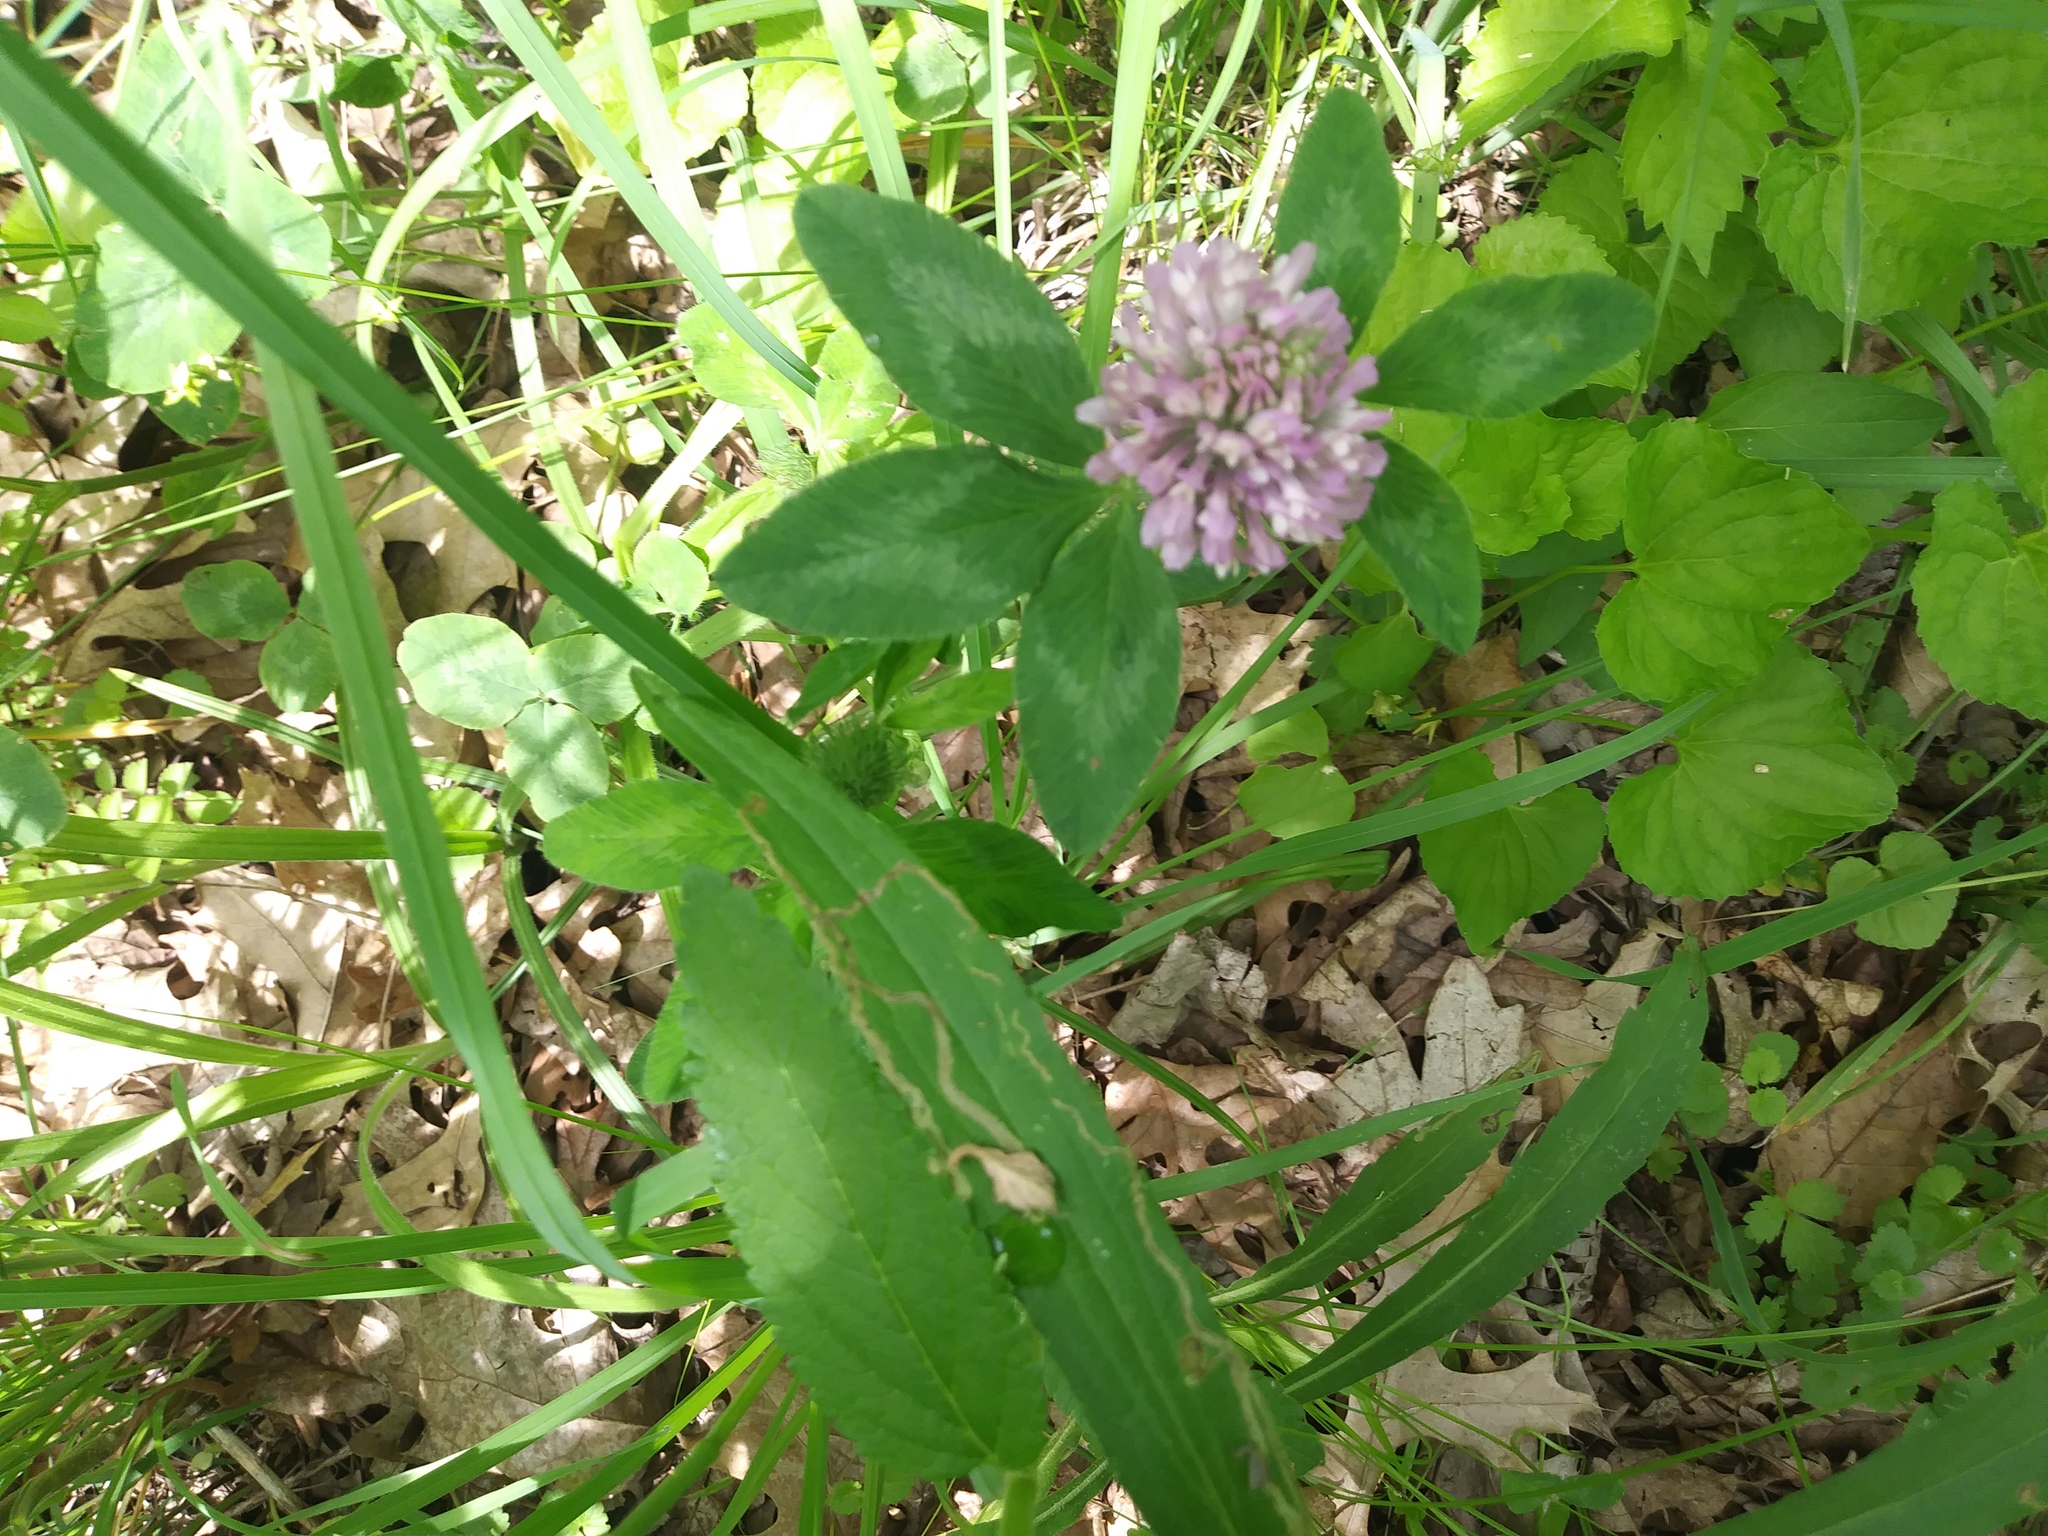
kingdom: Plantae
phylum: Tracheophyta
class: Magnoliopsida
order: Fabales
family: Fabaceae
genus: Trifolium
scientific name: Trifolium pratense
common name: Red clover
